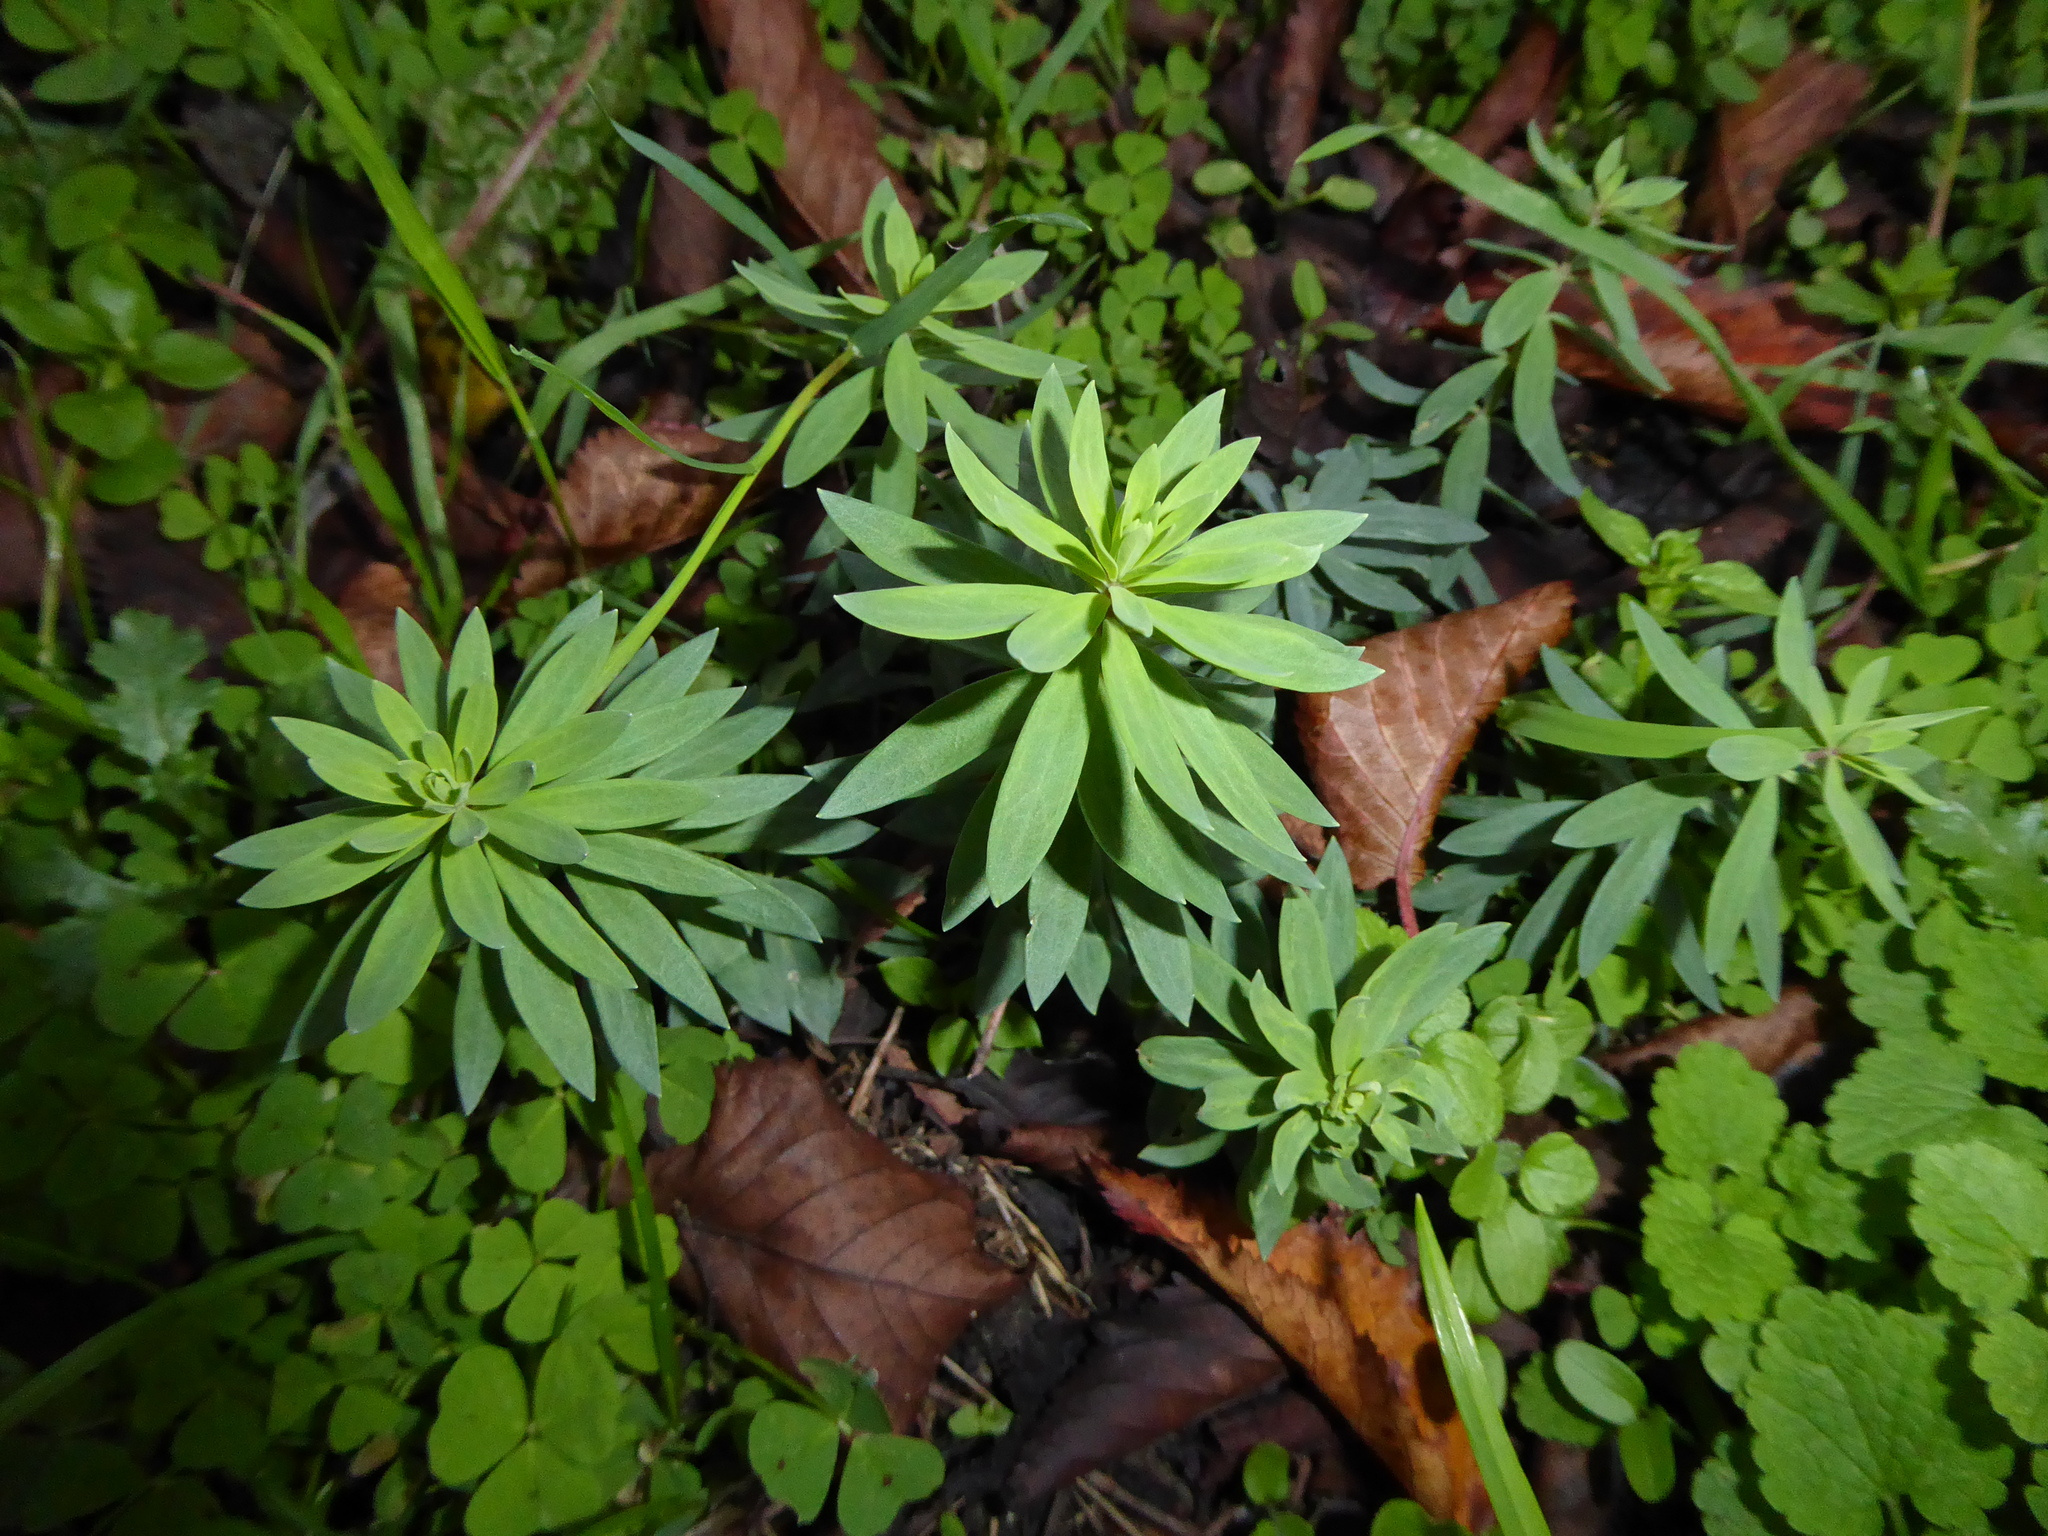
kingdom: Plantae
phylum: Tracheophyta
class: Magnoliopsida
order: Lamiales
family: Plantaginaceae
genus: Linaria
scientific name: Linaria purpurea
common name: Purple toadflax
